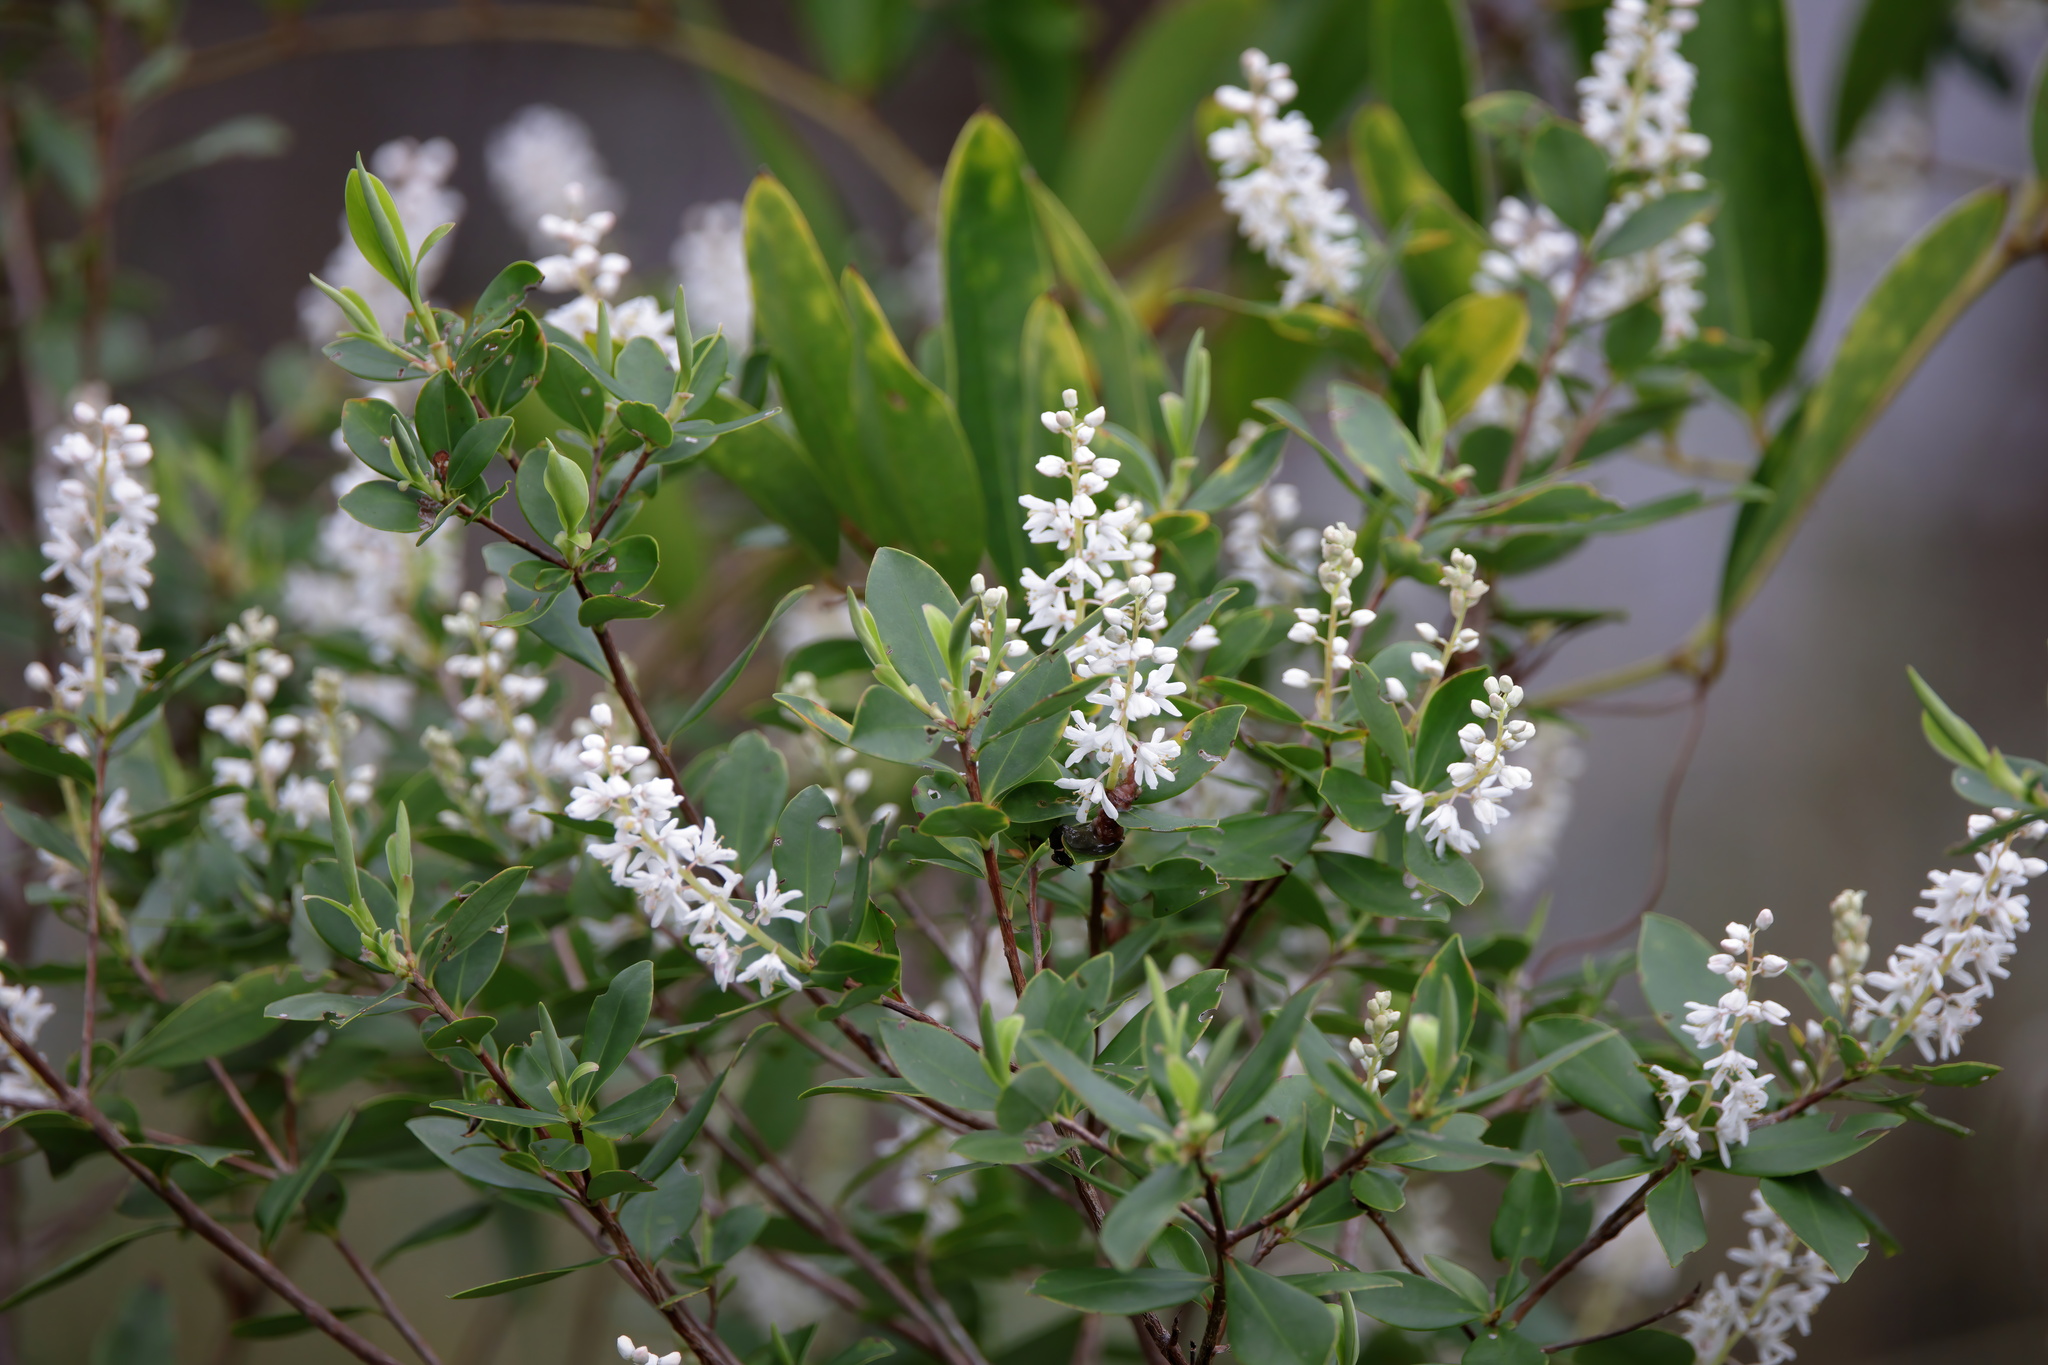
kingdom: Plantae
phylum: Tracheophyta
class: Magnoliopsida
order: Ericales
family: Cyrillaceae
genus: Cliftonia
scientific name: Cliftonia monophylla
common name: Titi
